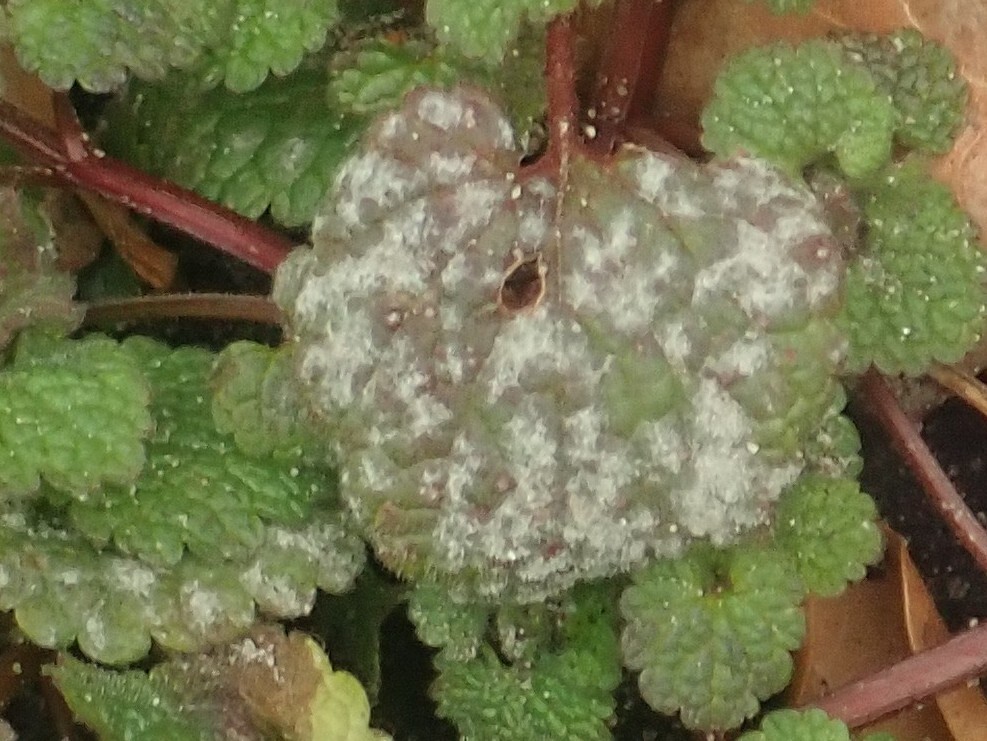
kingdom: Fungi
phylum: Ascomycota
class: Leotiomycetes
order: Helotiales
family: Erysiphaceae
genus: Neoerysiphe
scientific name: Neoerysiphe galeopsidis
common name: Mint mildew
